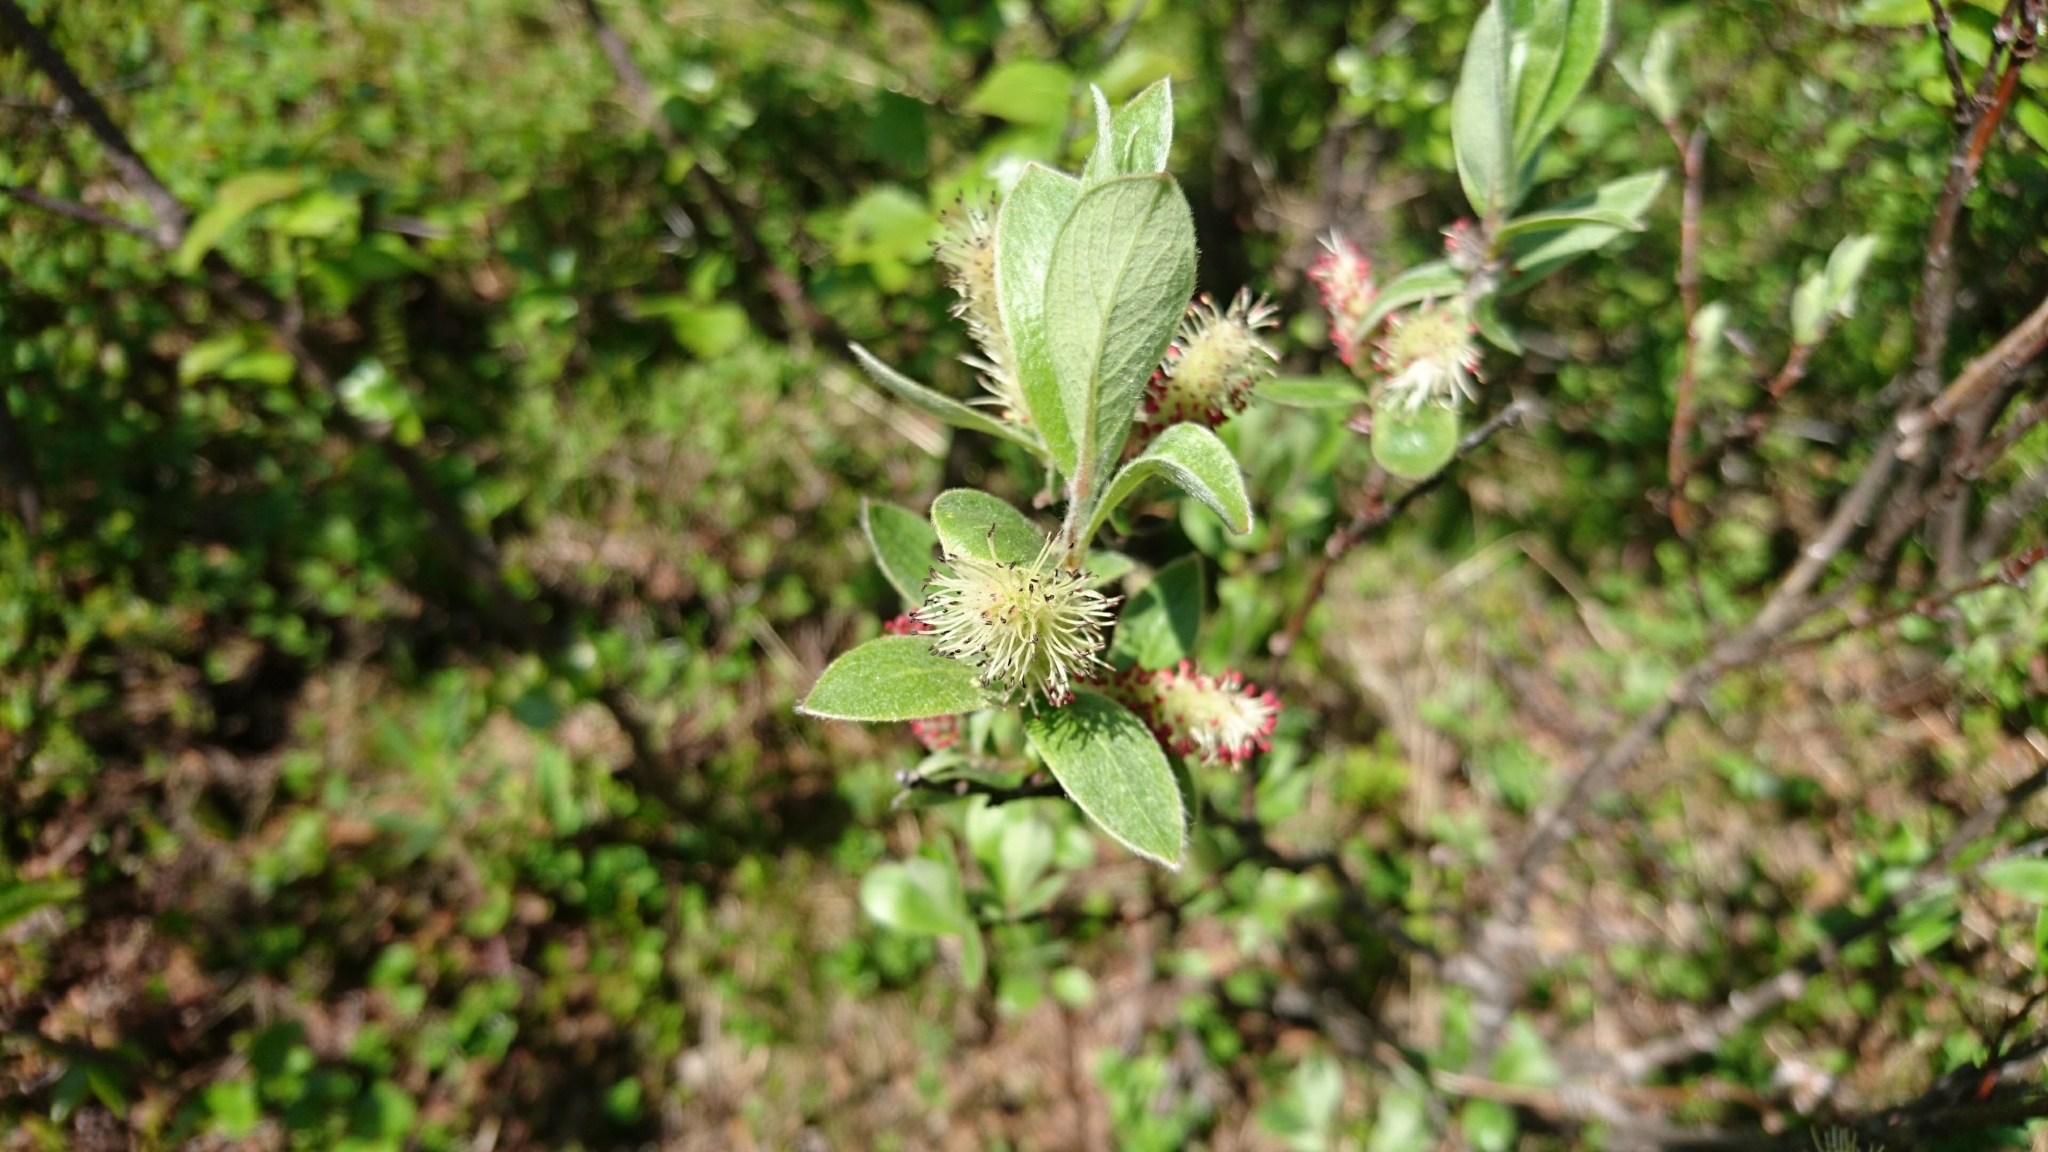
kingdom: Plantae
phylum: Tracheophyta
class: Magnoliopsida
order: Malpighiales
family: Salicaceae
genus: Salix
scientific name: Salix glauca
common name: Glaucous willow
